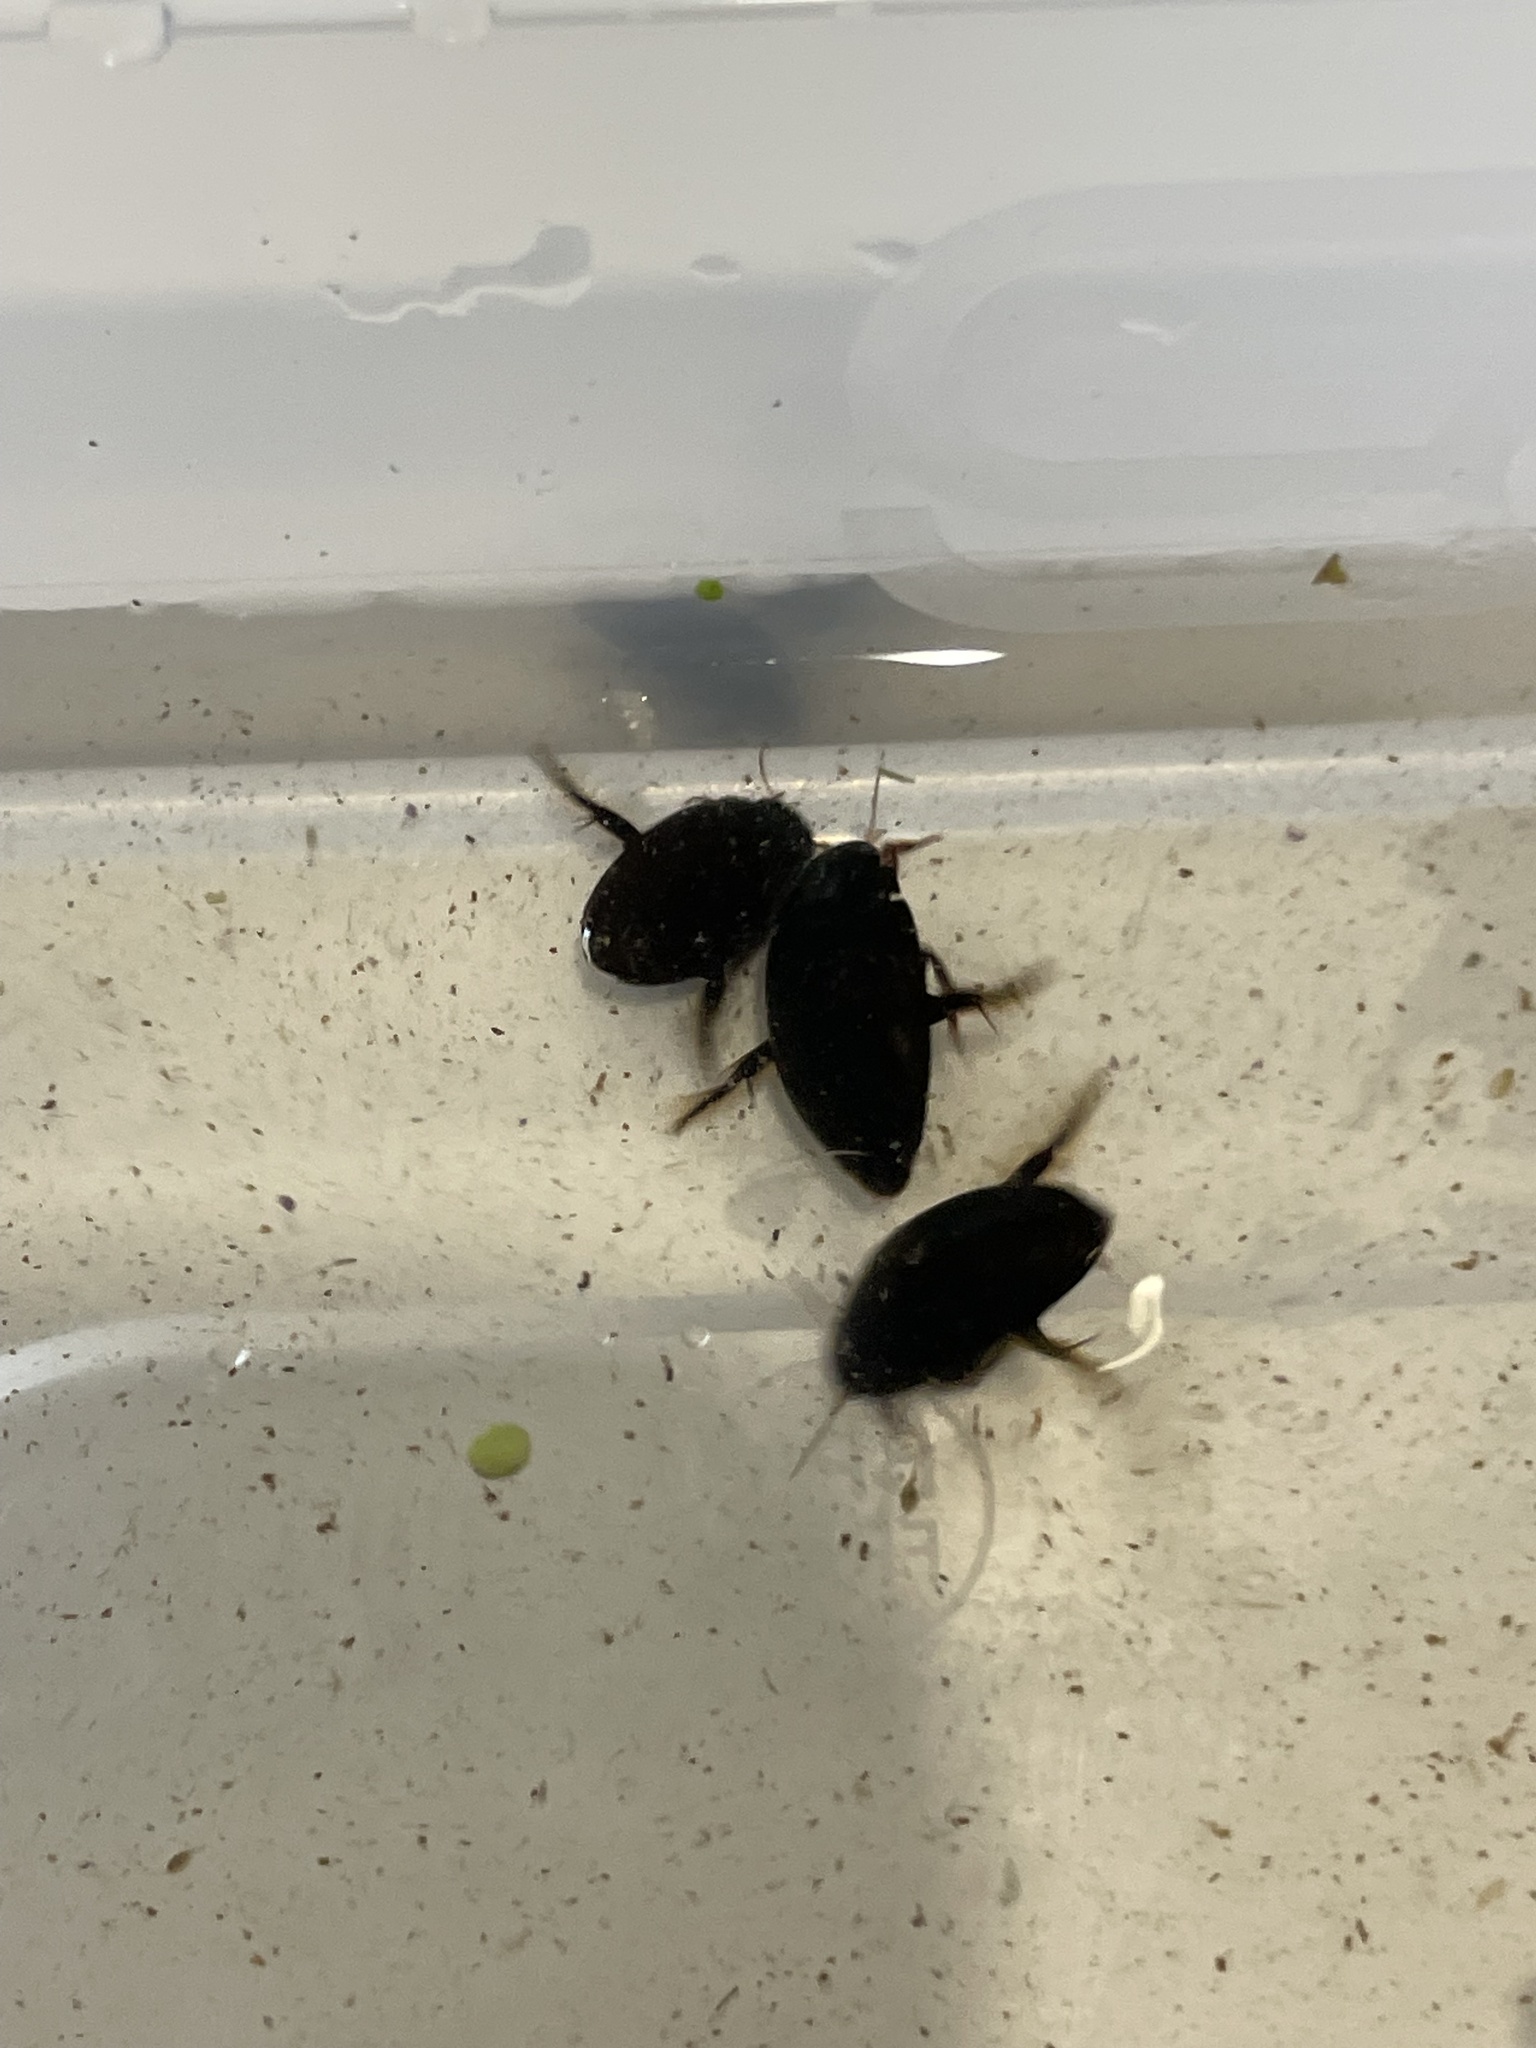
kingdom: Animalia
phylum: Arthropoda
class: Insecta
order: Coleoptera
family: Dytiscidae
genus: Colymbetes
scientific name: Colymbetes fuscus
